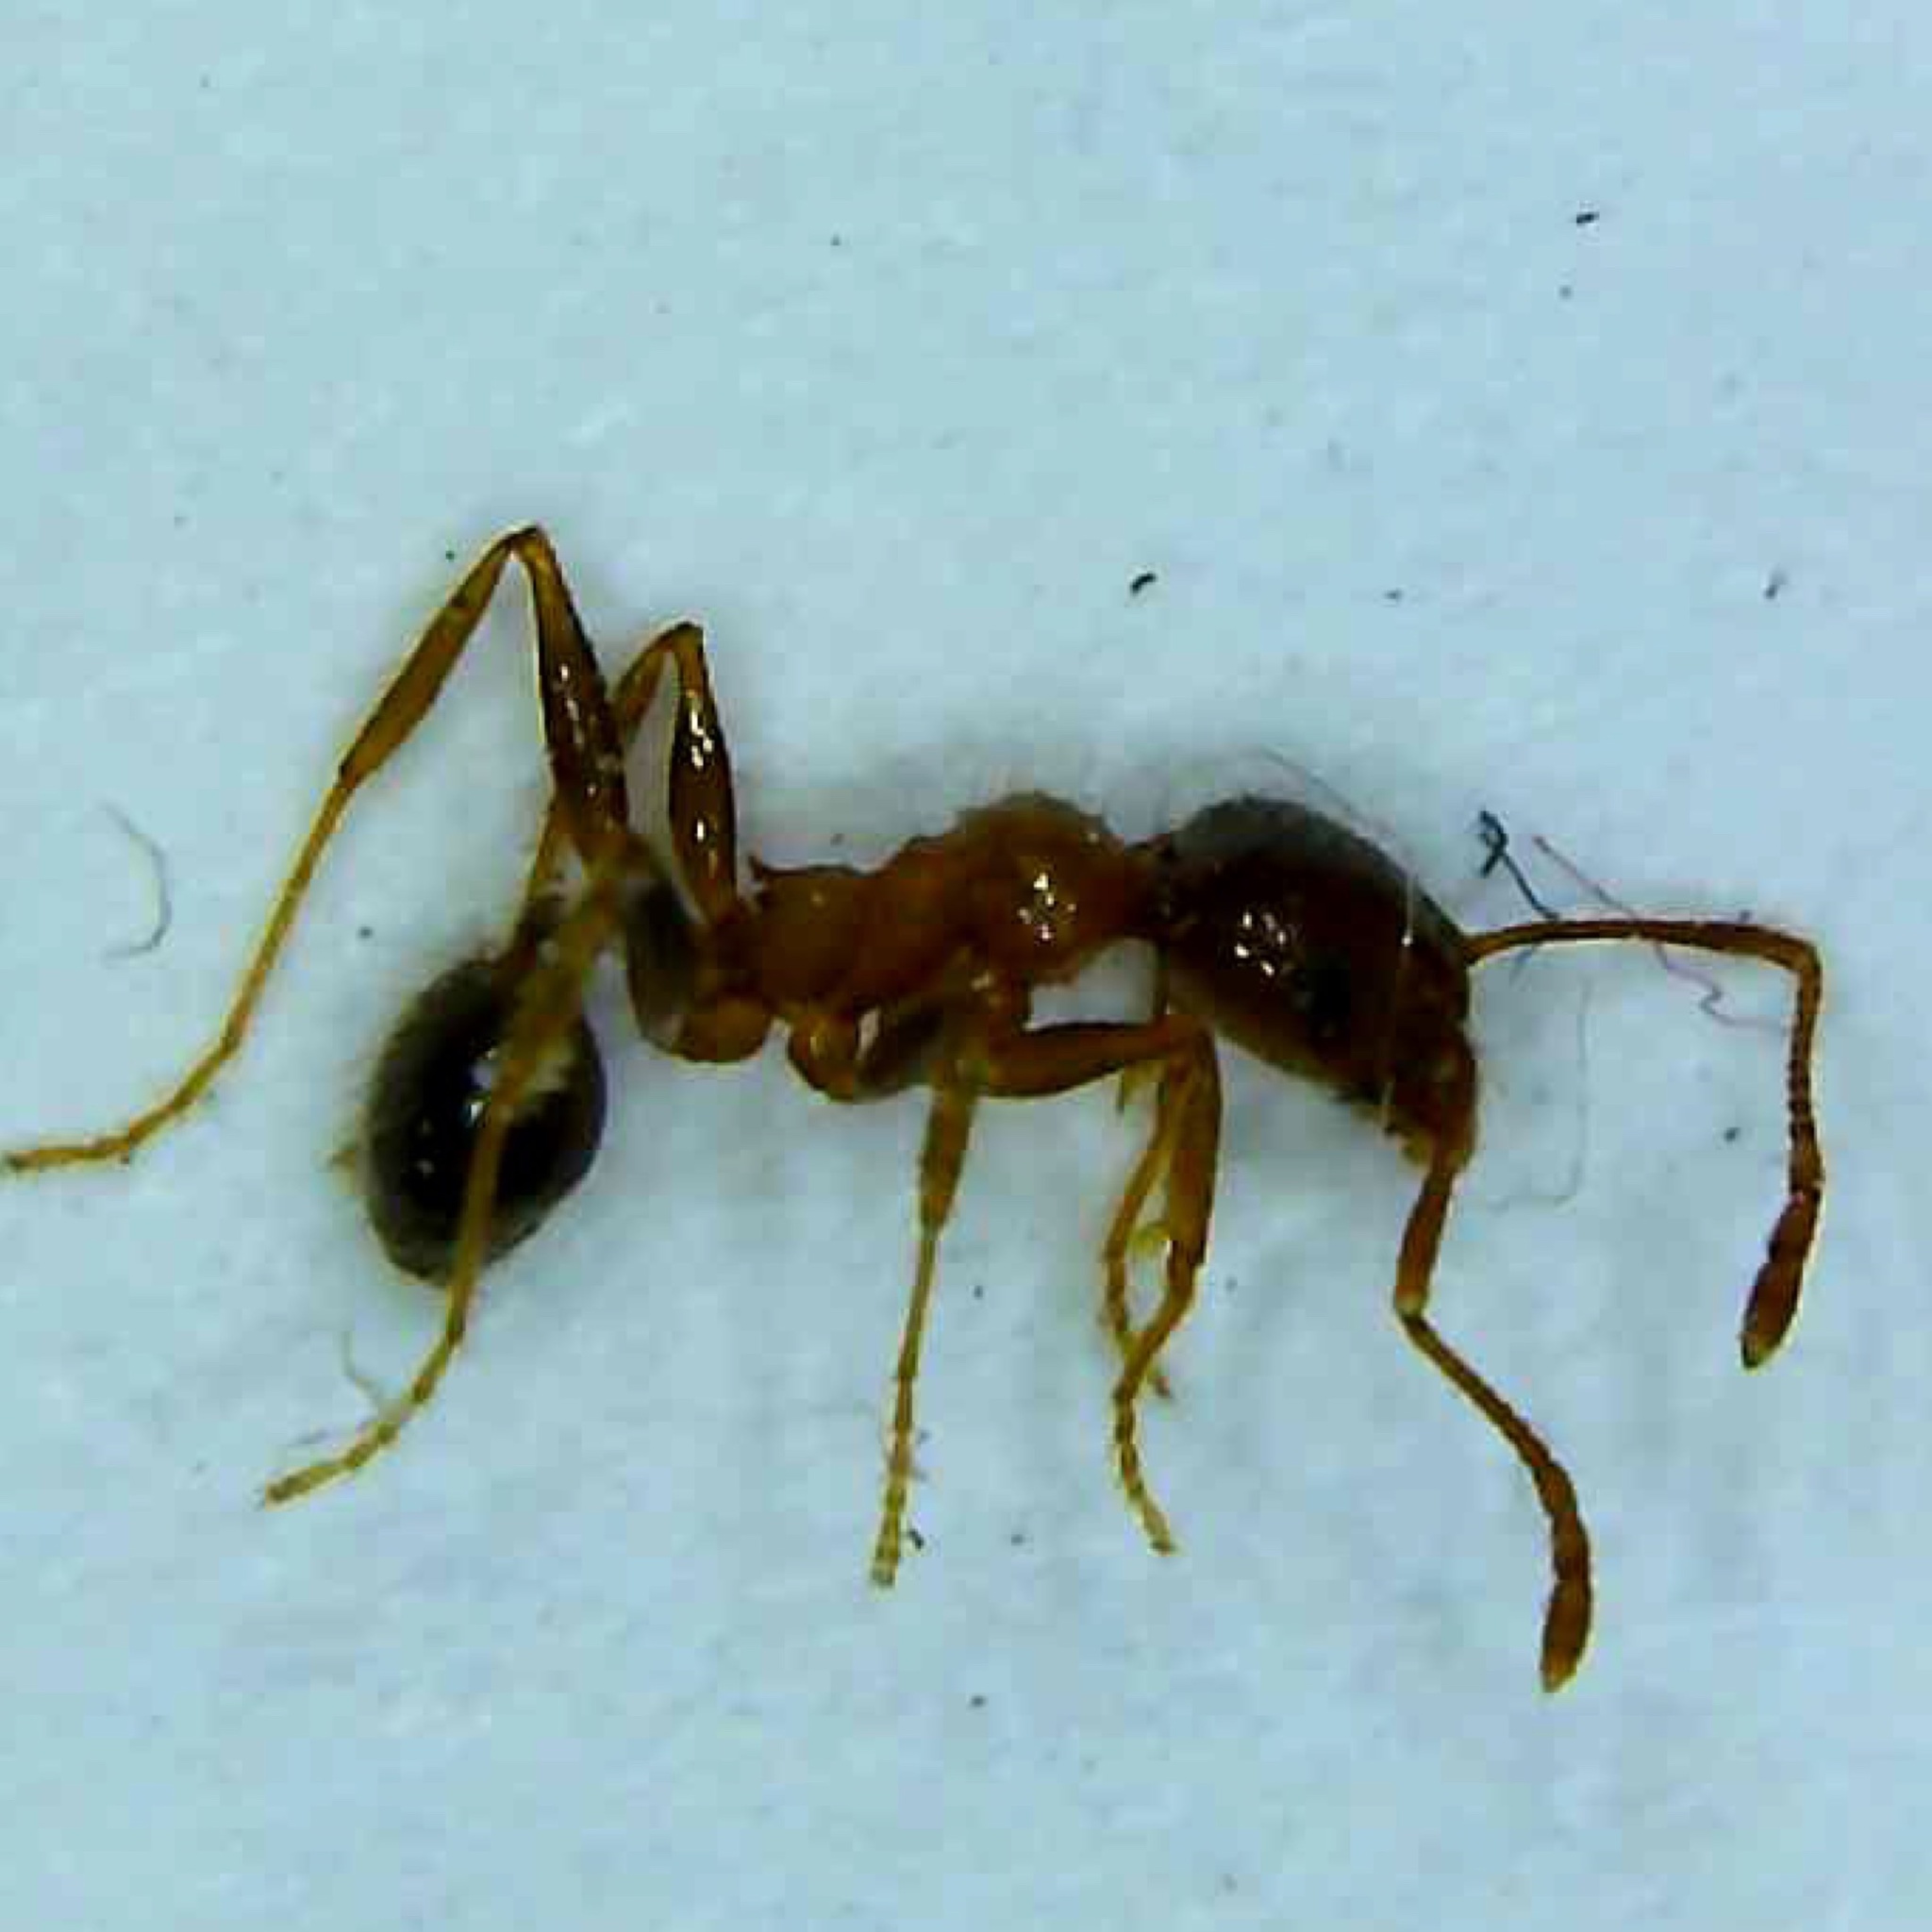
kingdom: Animalia
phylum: Arthropoda
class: Insecta
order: Hymenoptera
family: Formicidae
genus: Pheidole
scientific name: Pheidole dentata
